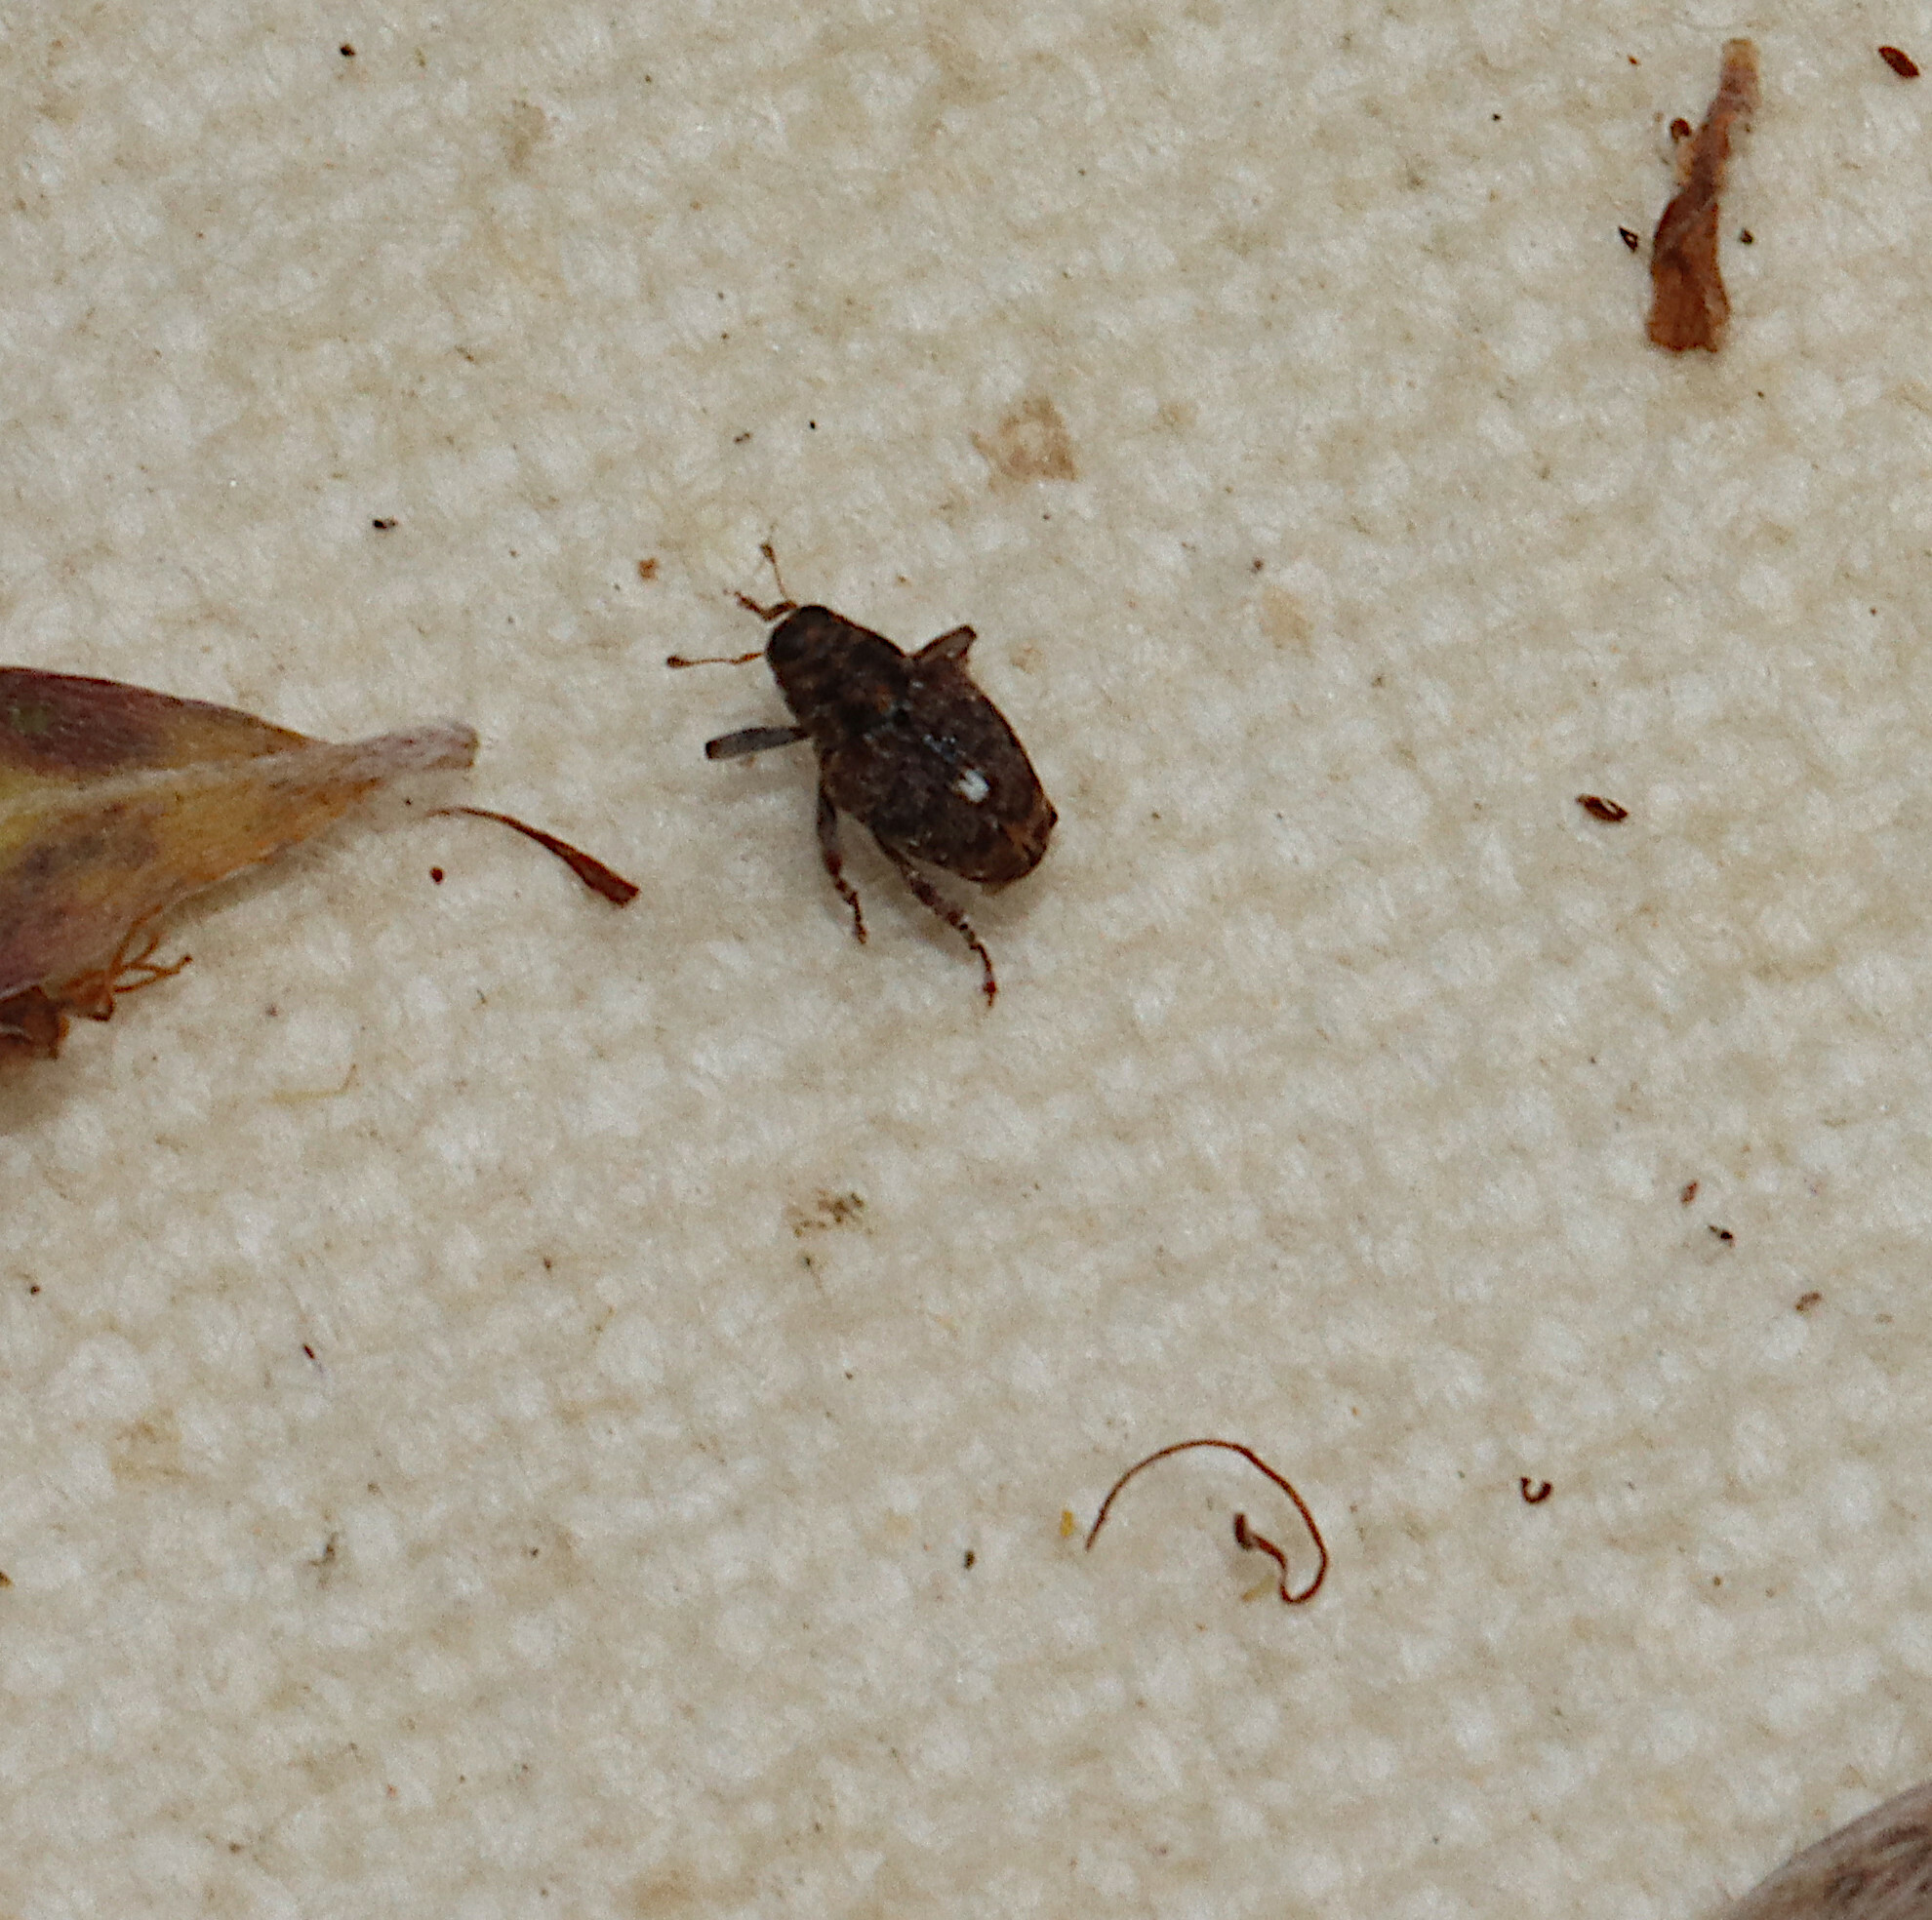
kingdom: Animalia
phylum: Arthropoda
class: Insecta
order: Coleoptera
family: Curculionidae
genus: Lechriops
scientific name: Lechriops oculatus
